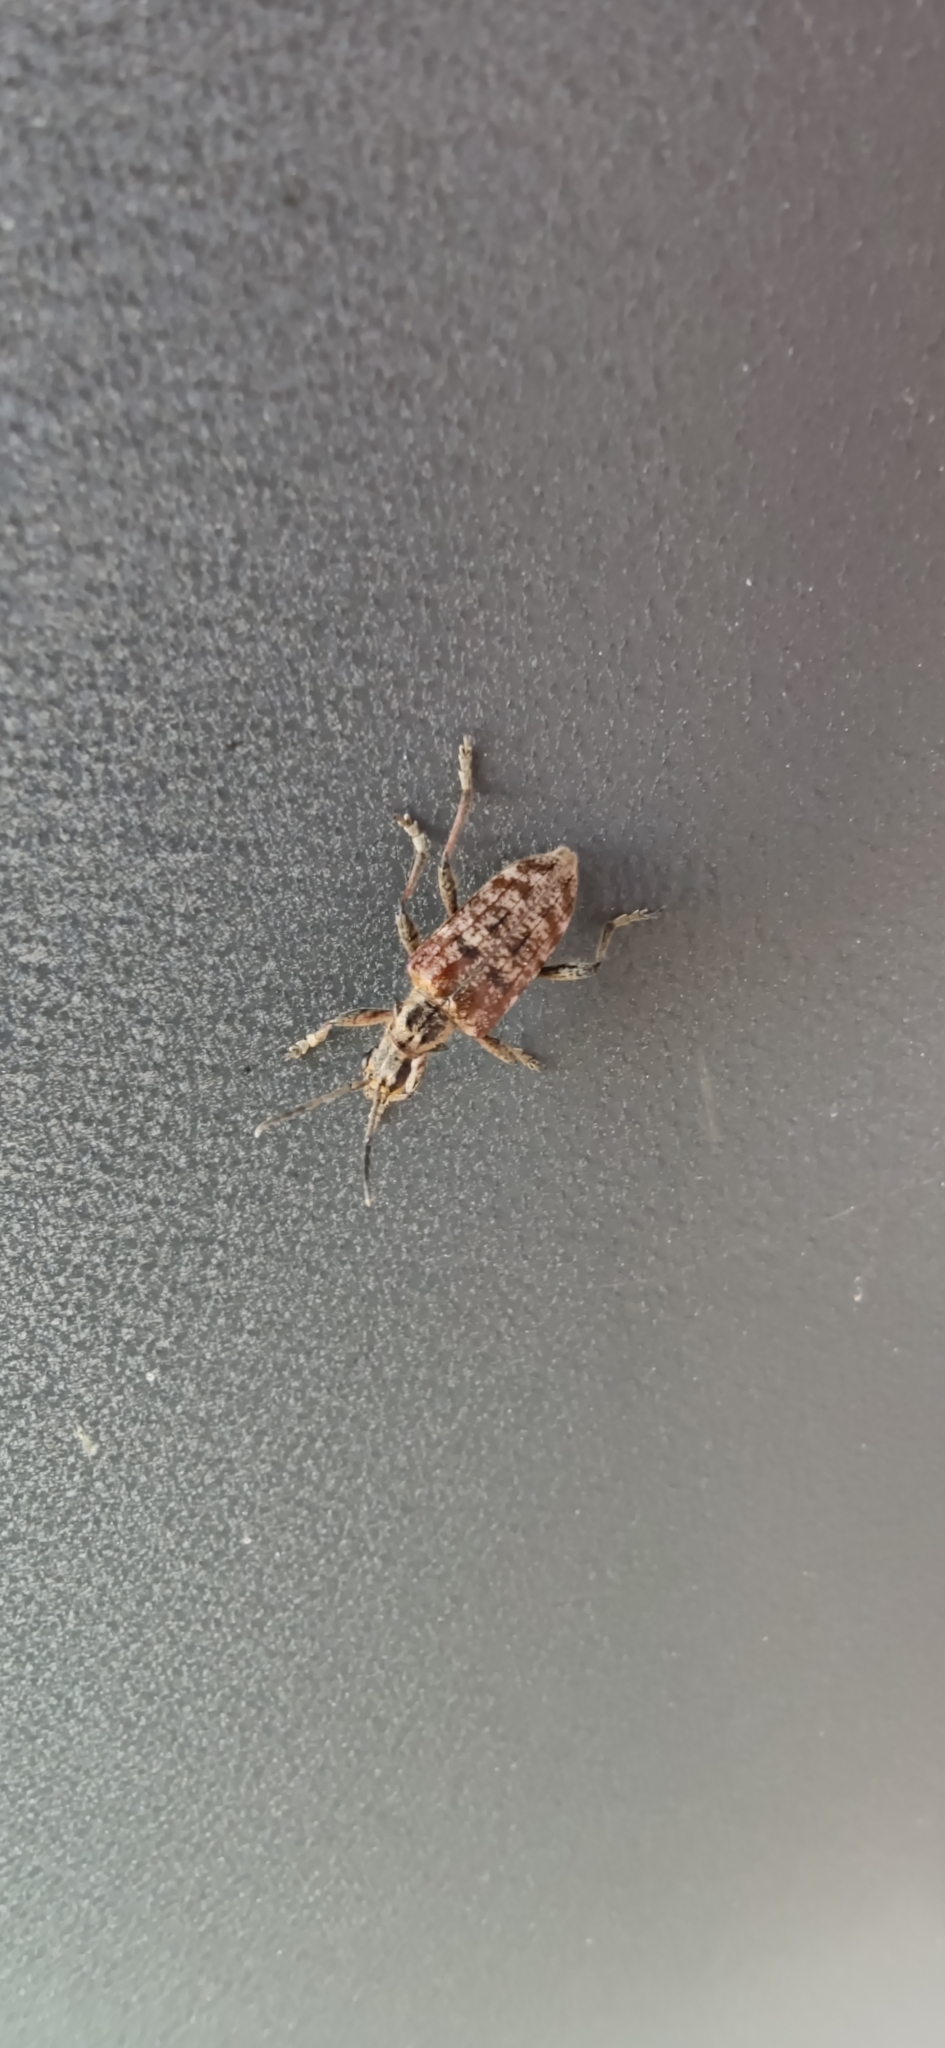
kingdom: Animalia
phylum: Arthropoda
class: Insecta
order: Coleoptera
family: Cerambycidae
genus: Rhagium
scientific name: Rhagium inquisitor
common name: Ribbed pine borer
